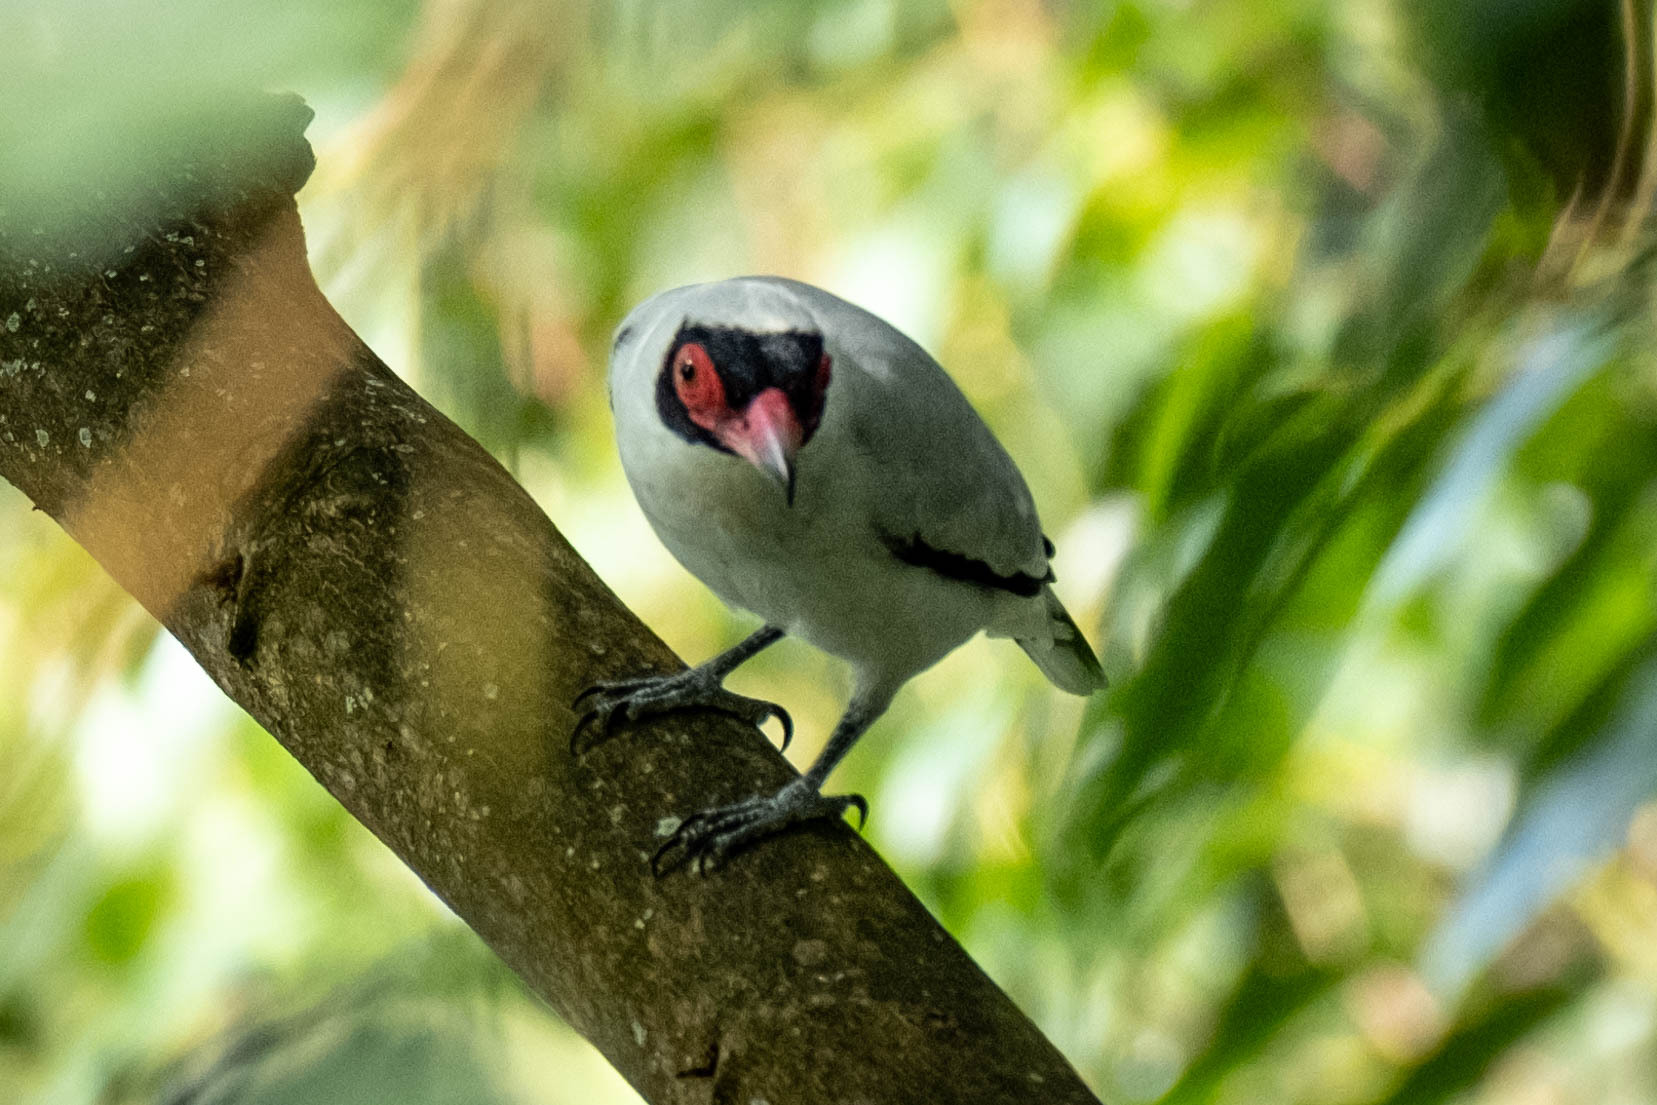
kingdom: Animalia
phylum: Chordata
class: Aves
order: Passeriformes
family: Cotingidae
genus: Tityra
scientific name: Tityra semifasciata
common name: Masked tityra
